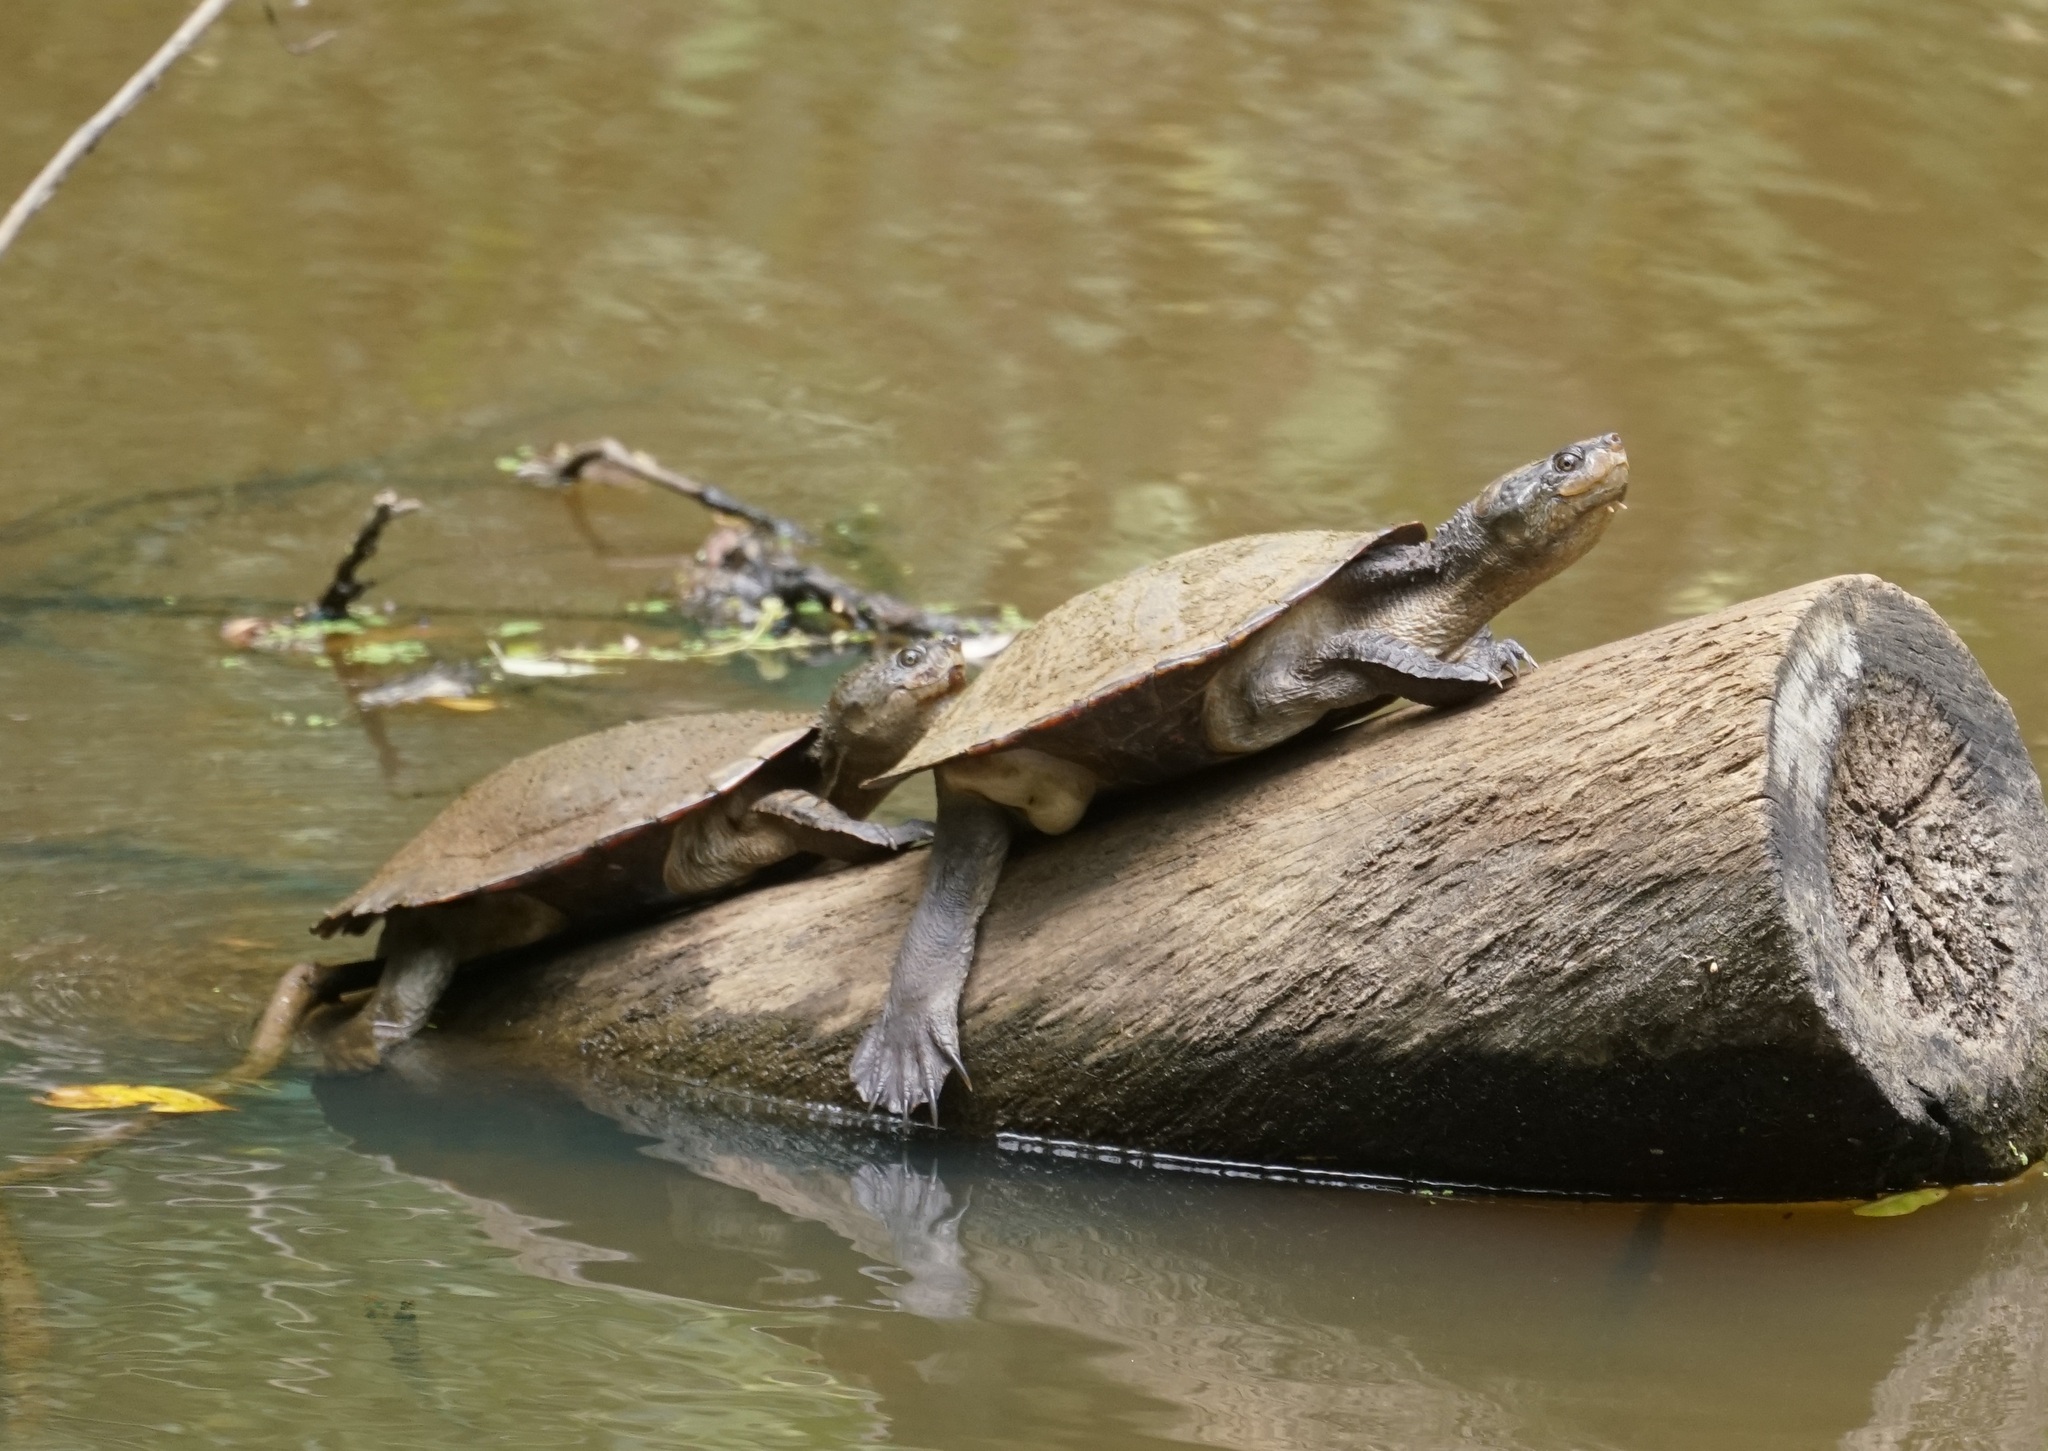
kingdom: Animalia
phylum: Chordata
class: Testudines
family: Chelidae
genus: Myuchelys
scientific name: Myuchelys latisternum
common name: Serrated snapping turtle
